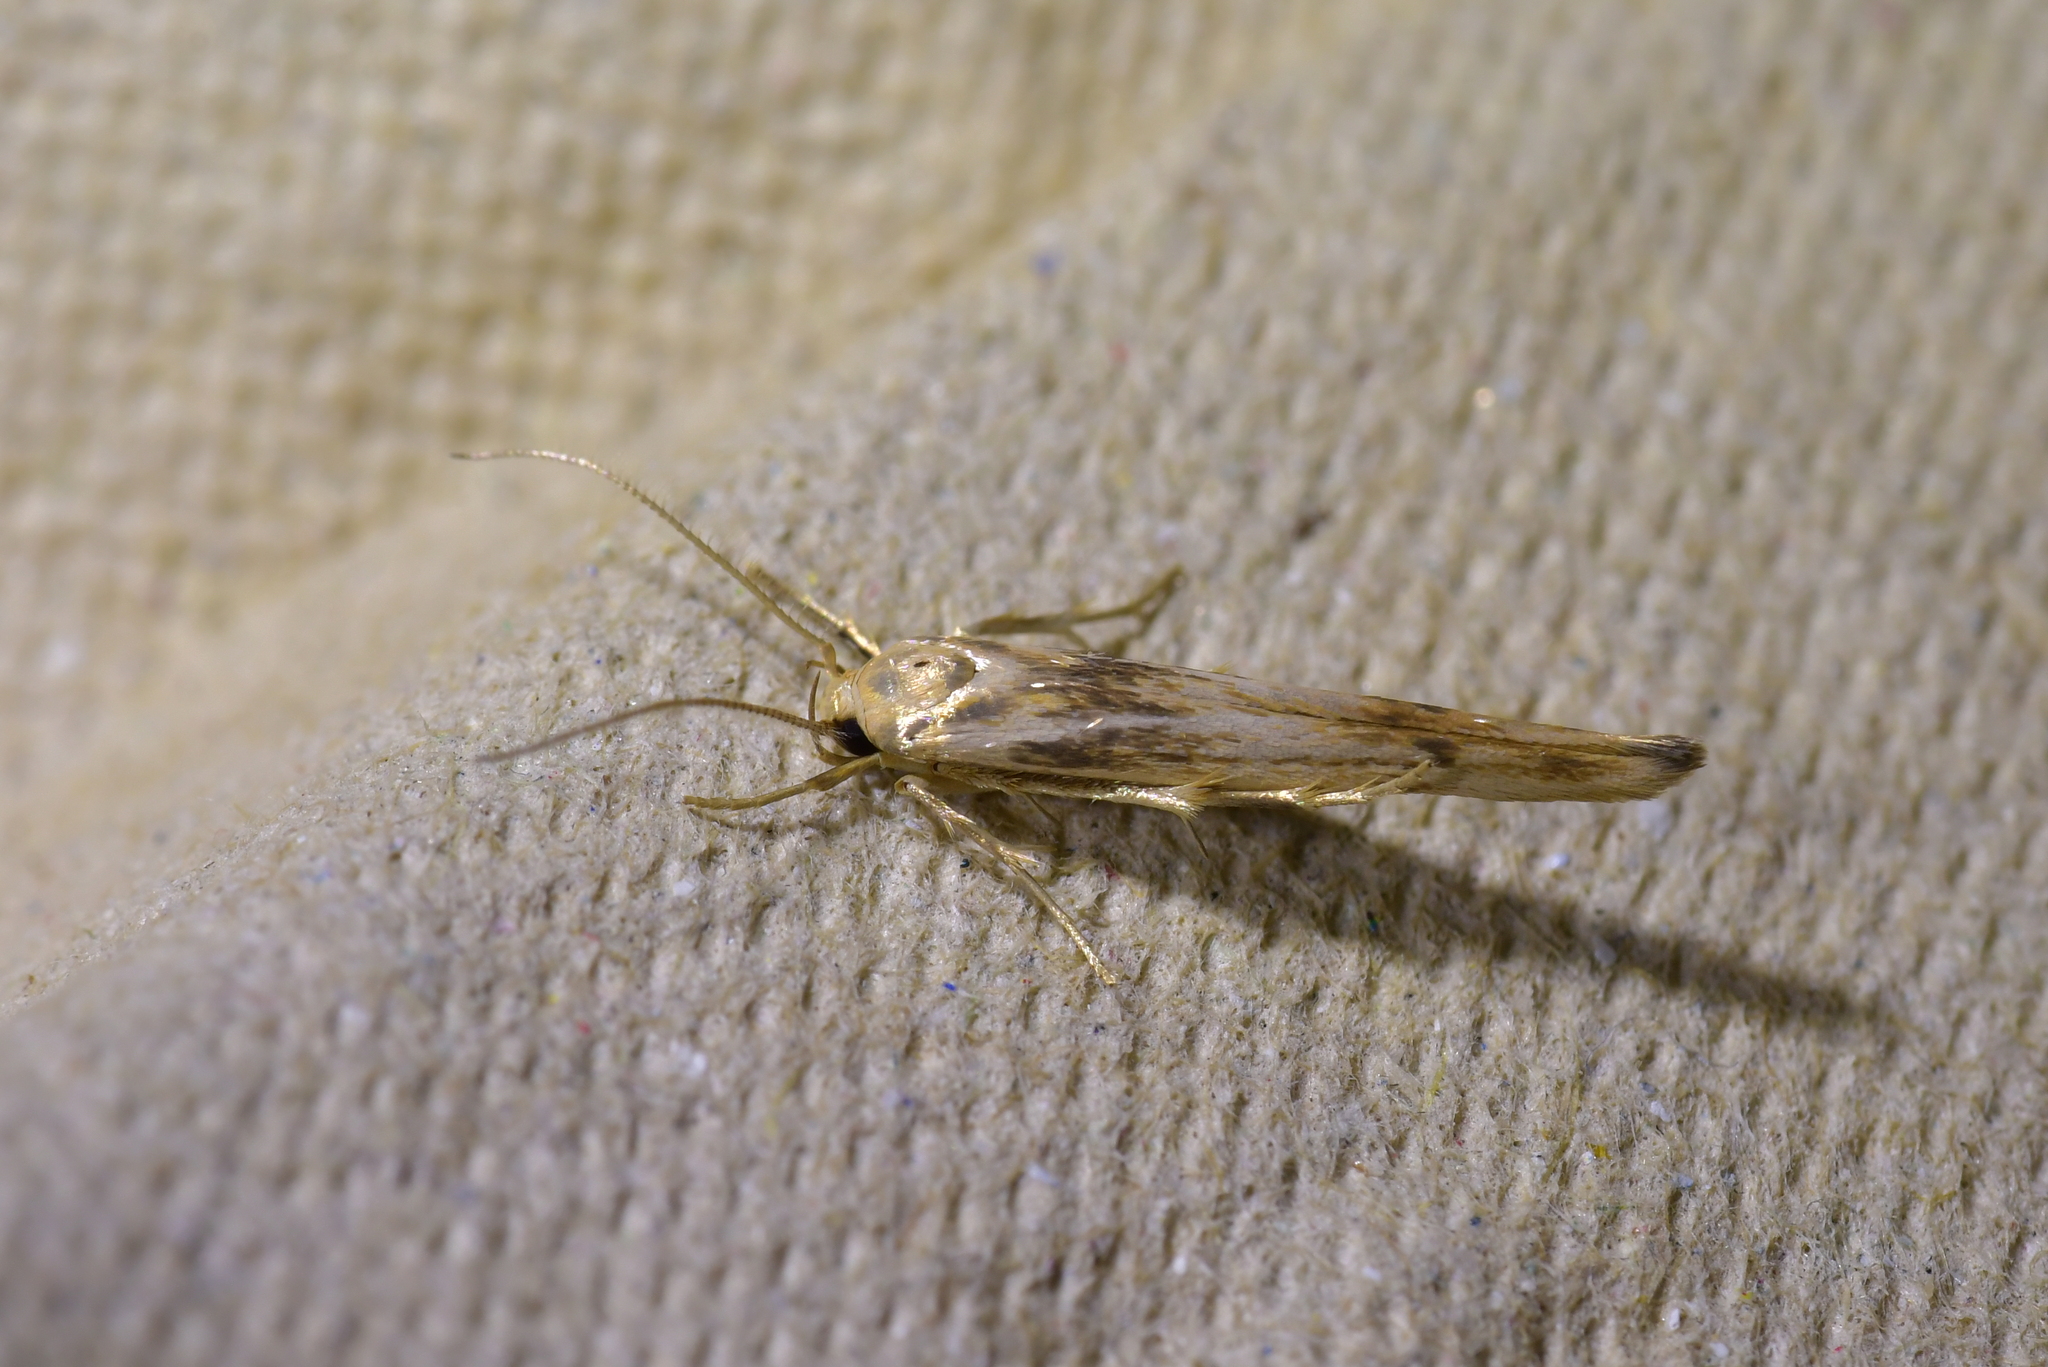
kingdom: Animalia
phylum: Arthropoda
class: Insecta
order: Lepidoptera
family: Stathmopodidae
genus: Stathmopoda
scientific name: Stathmopoda aposema
